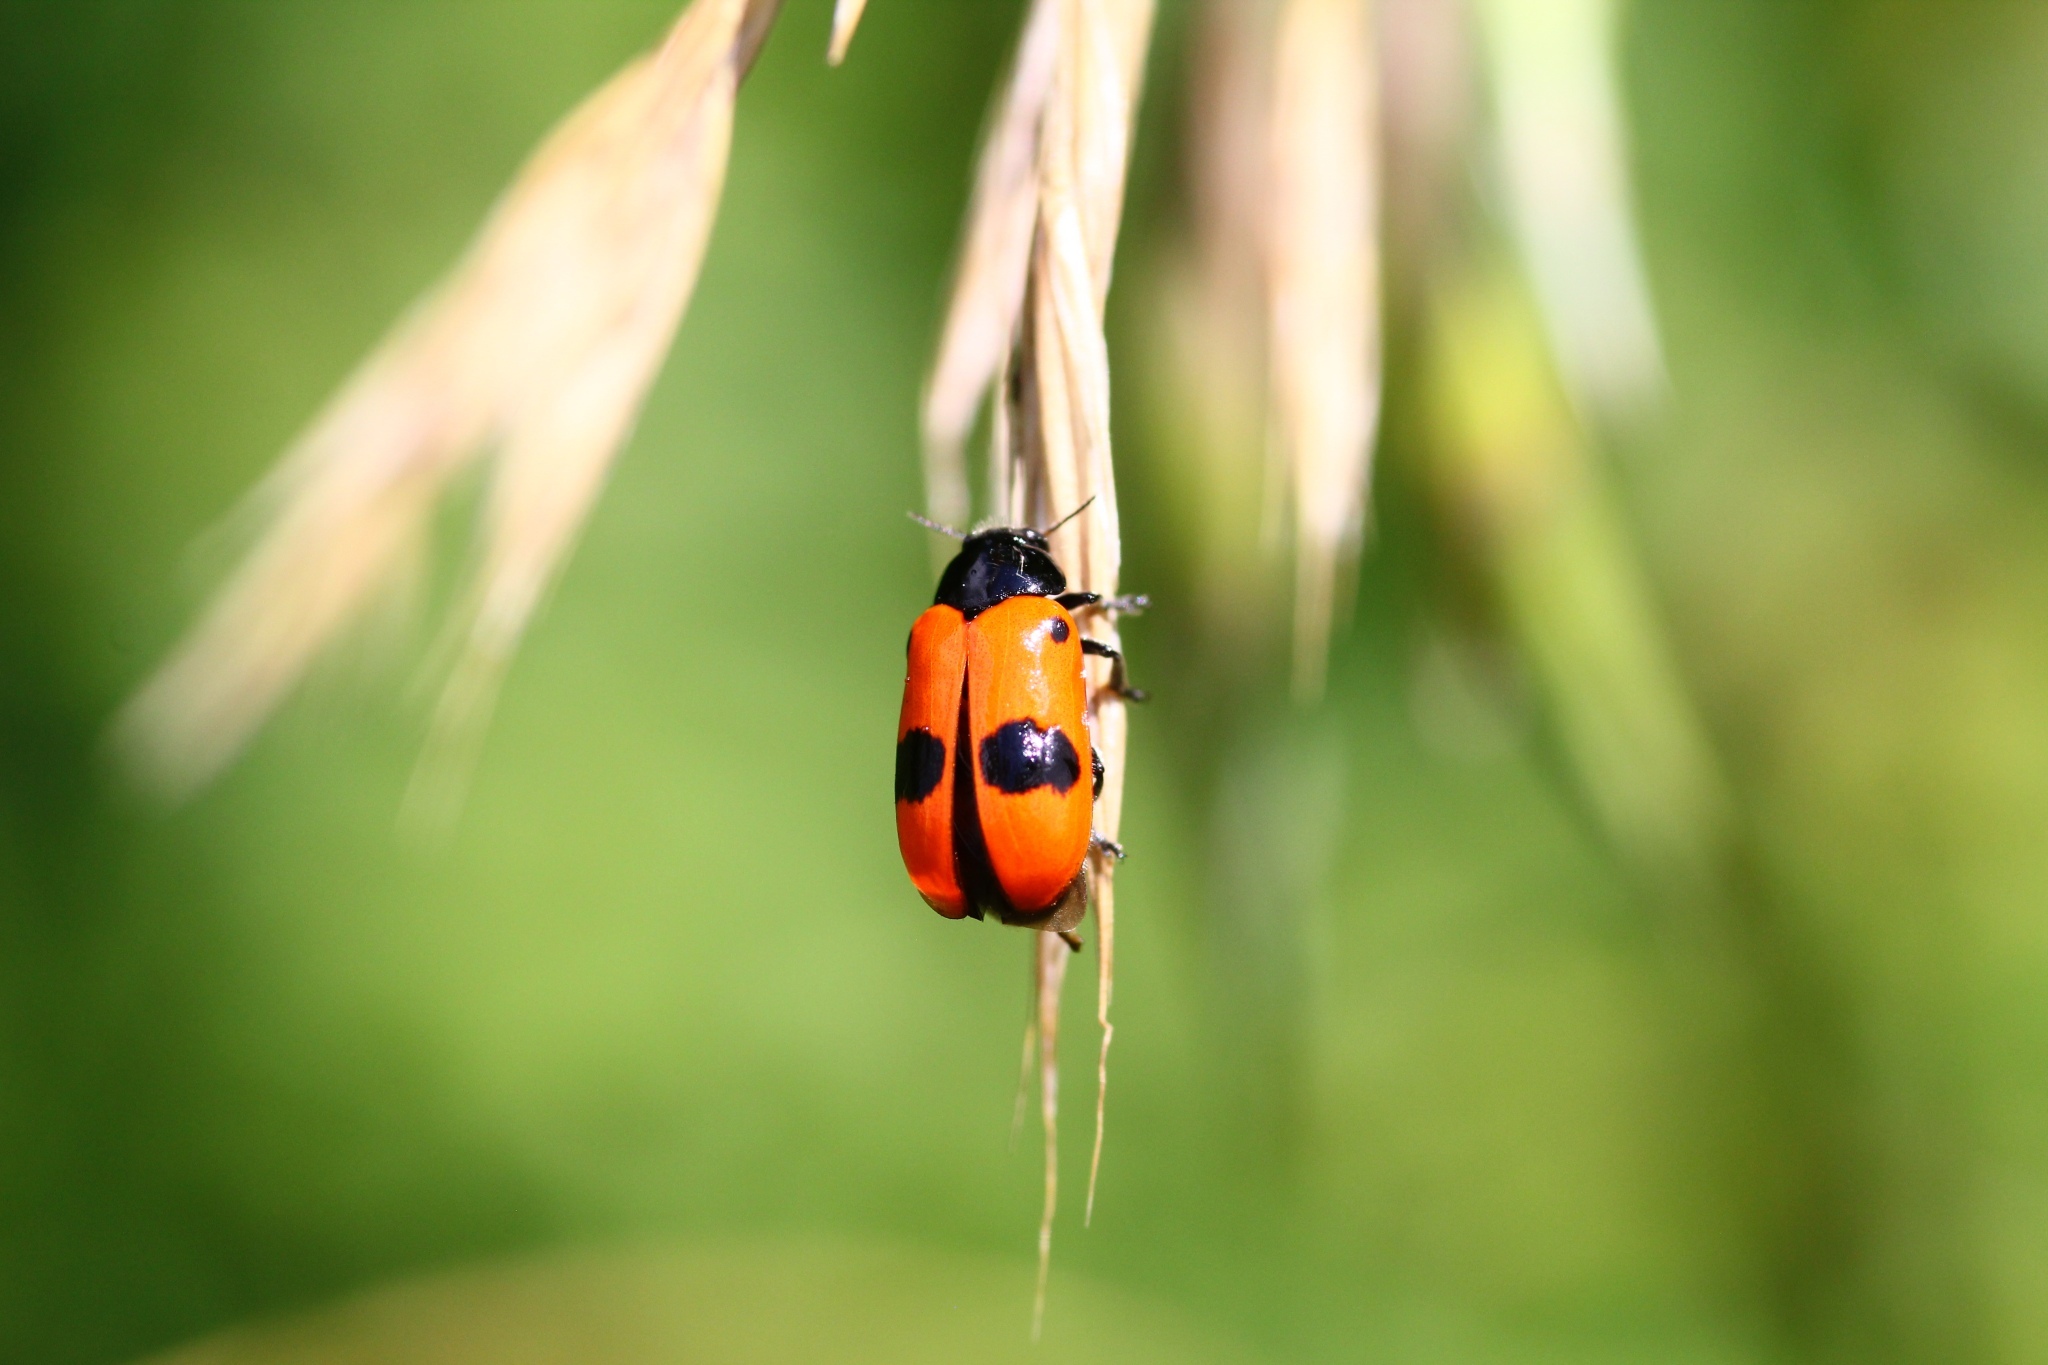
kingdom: Animalia
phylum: Arthropoda
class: Insecta
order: Coleoptera
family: Chrysomelidae
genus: Clytra
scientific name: Clytra laeviuscula
